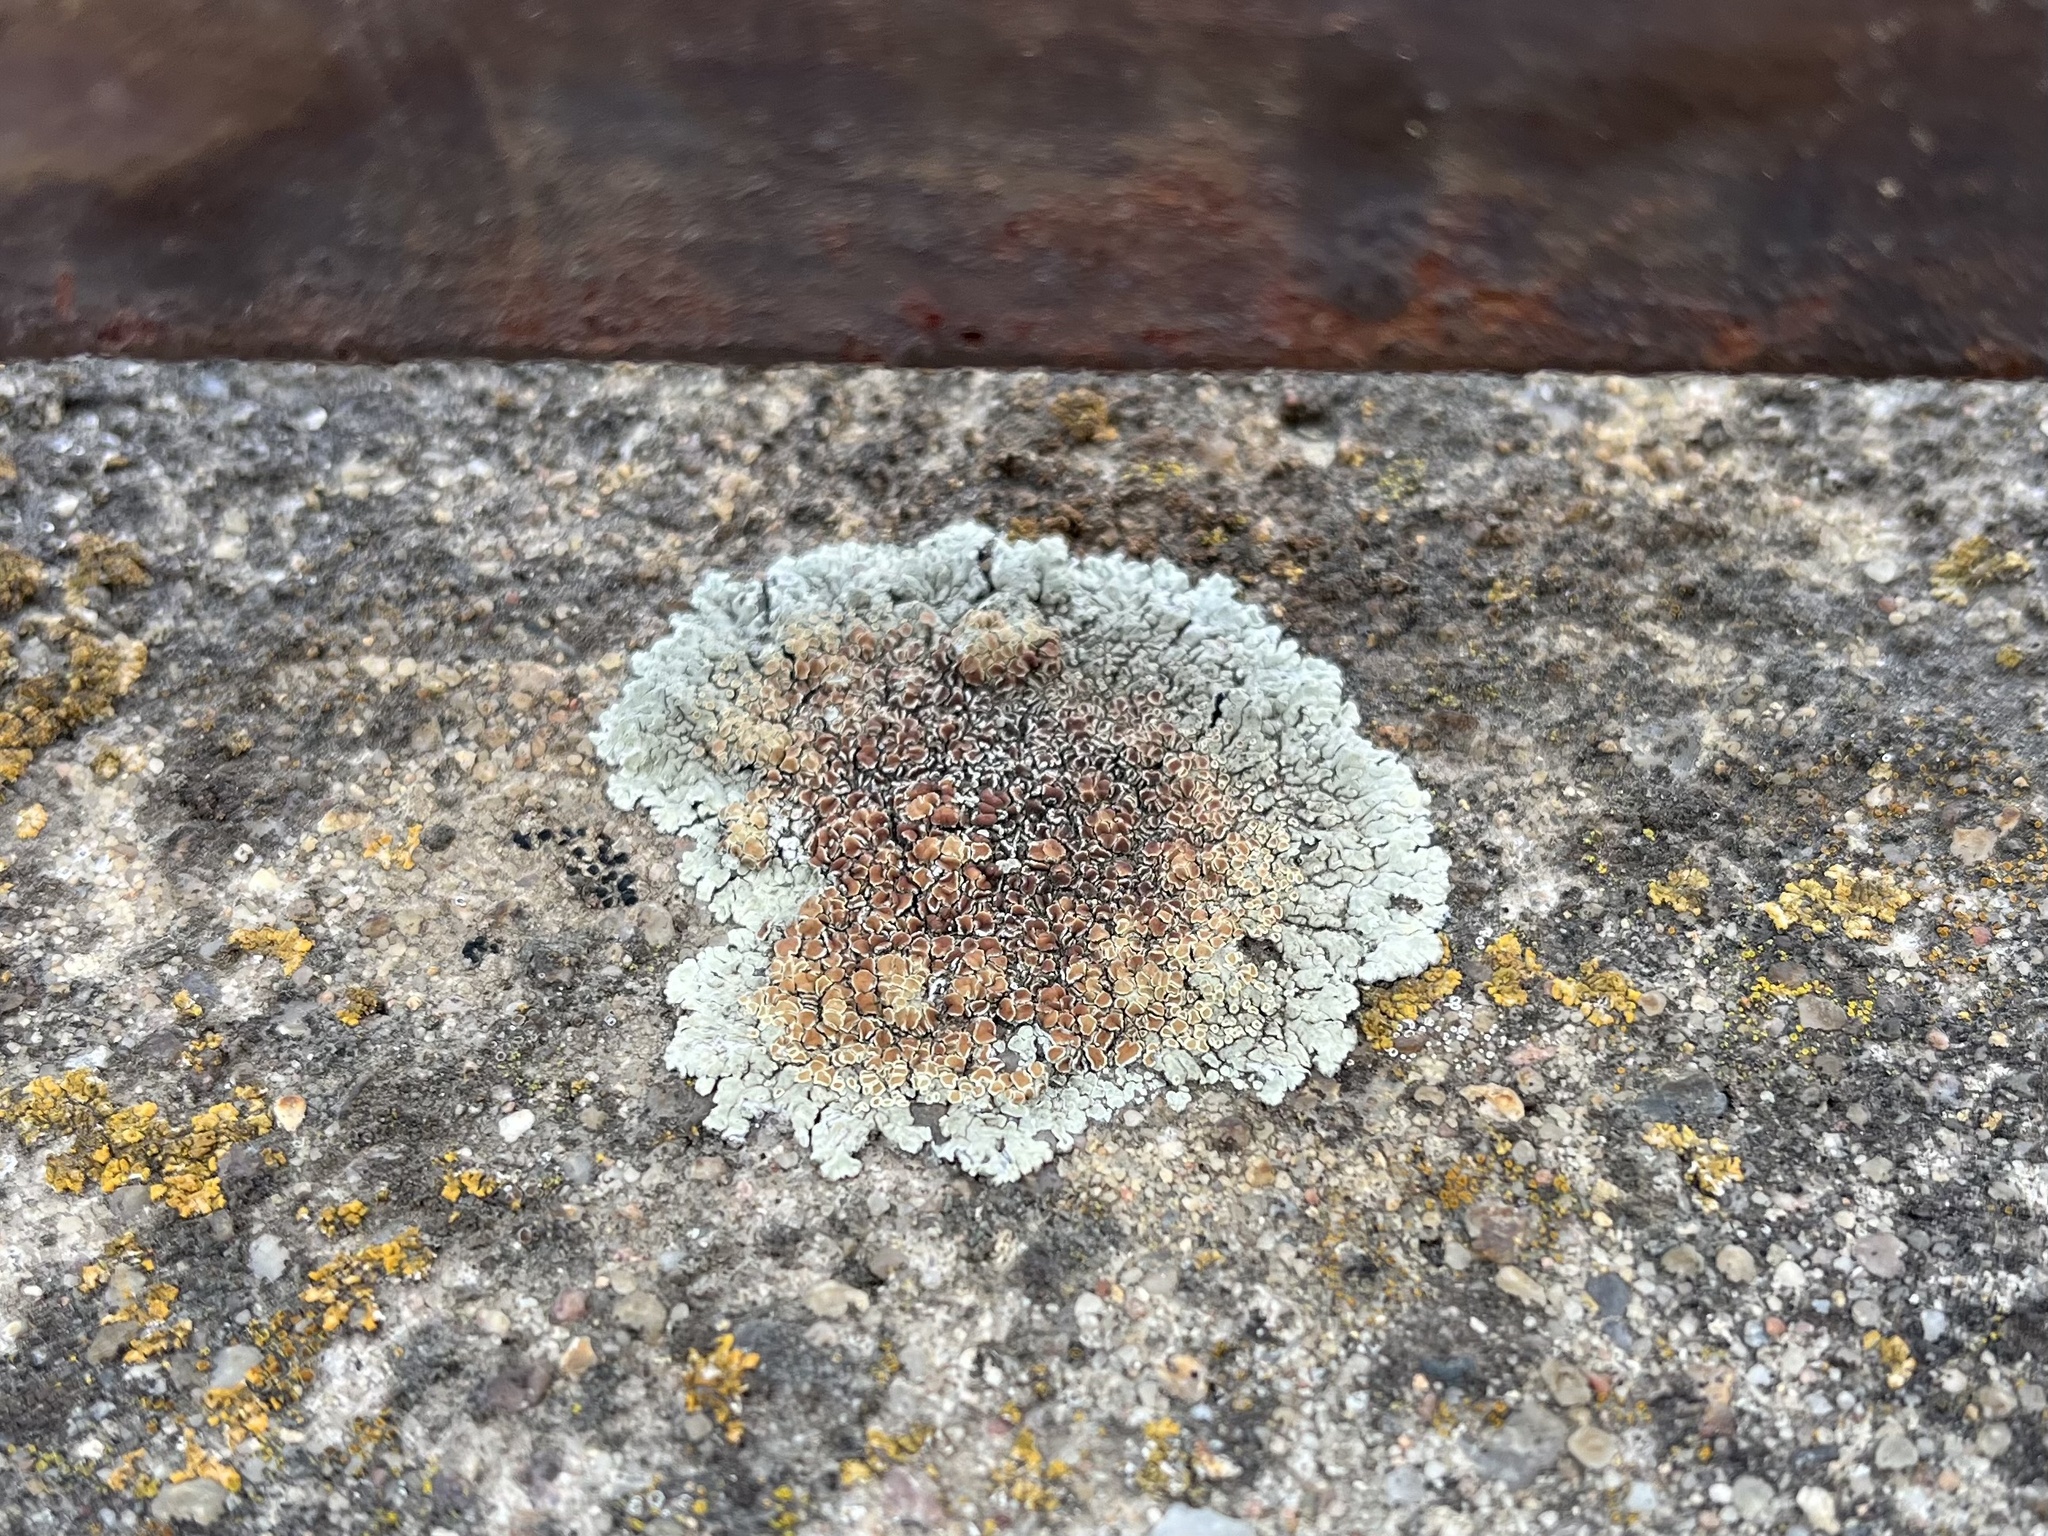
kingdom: Fungi
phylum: Ascomycota
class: Lecanoromycetes
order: Lecanorales
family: Lecanoraceae
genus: Protoparmeliopsis
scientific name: Protoparmeliopsis muralis
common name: Stonewall rim lichen
